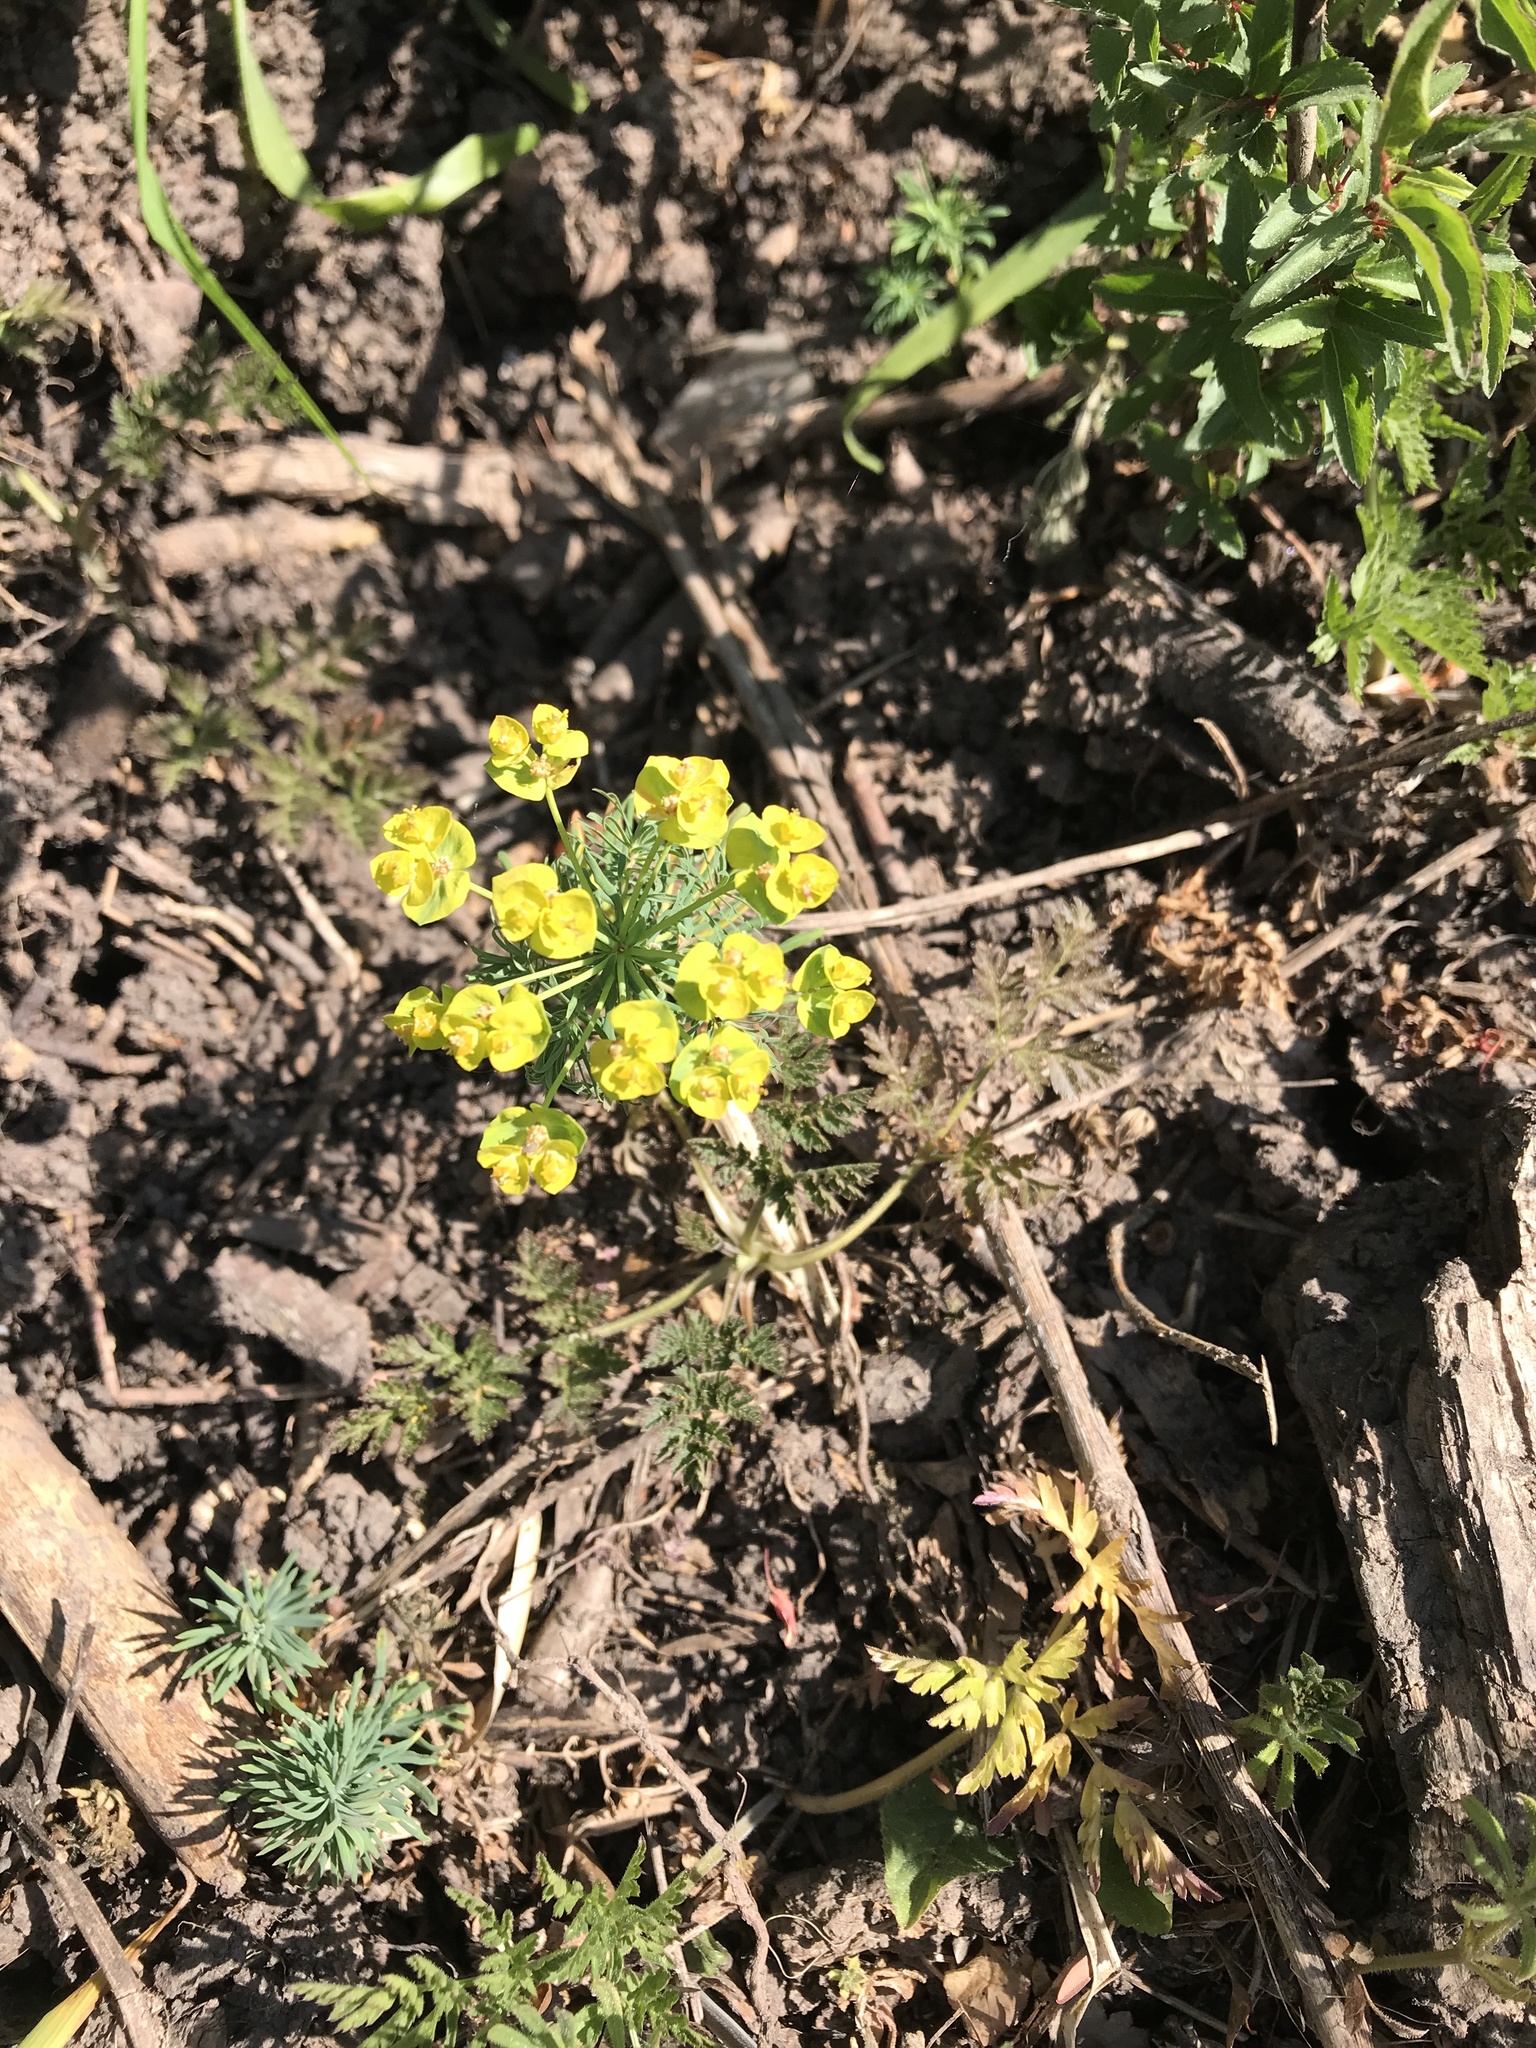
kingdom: Plantae
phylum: Tracheophyta
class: Magnoliopsida
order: Malpighiales
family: Euphorbiaceae
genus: Euphorbia
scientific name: Euphorbia cyparissias
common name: Cypress spurge
